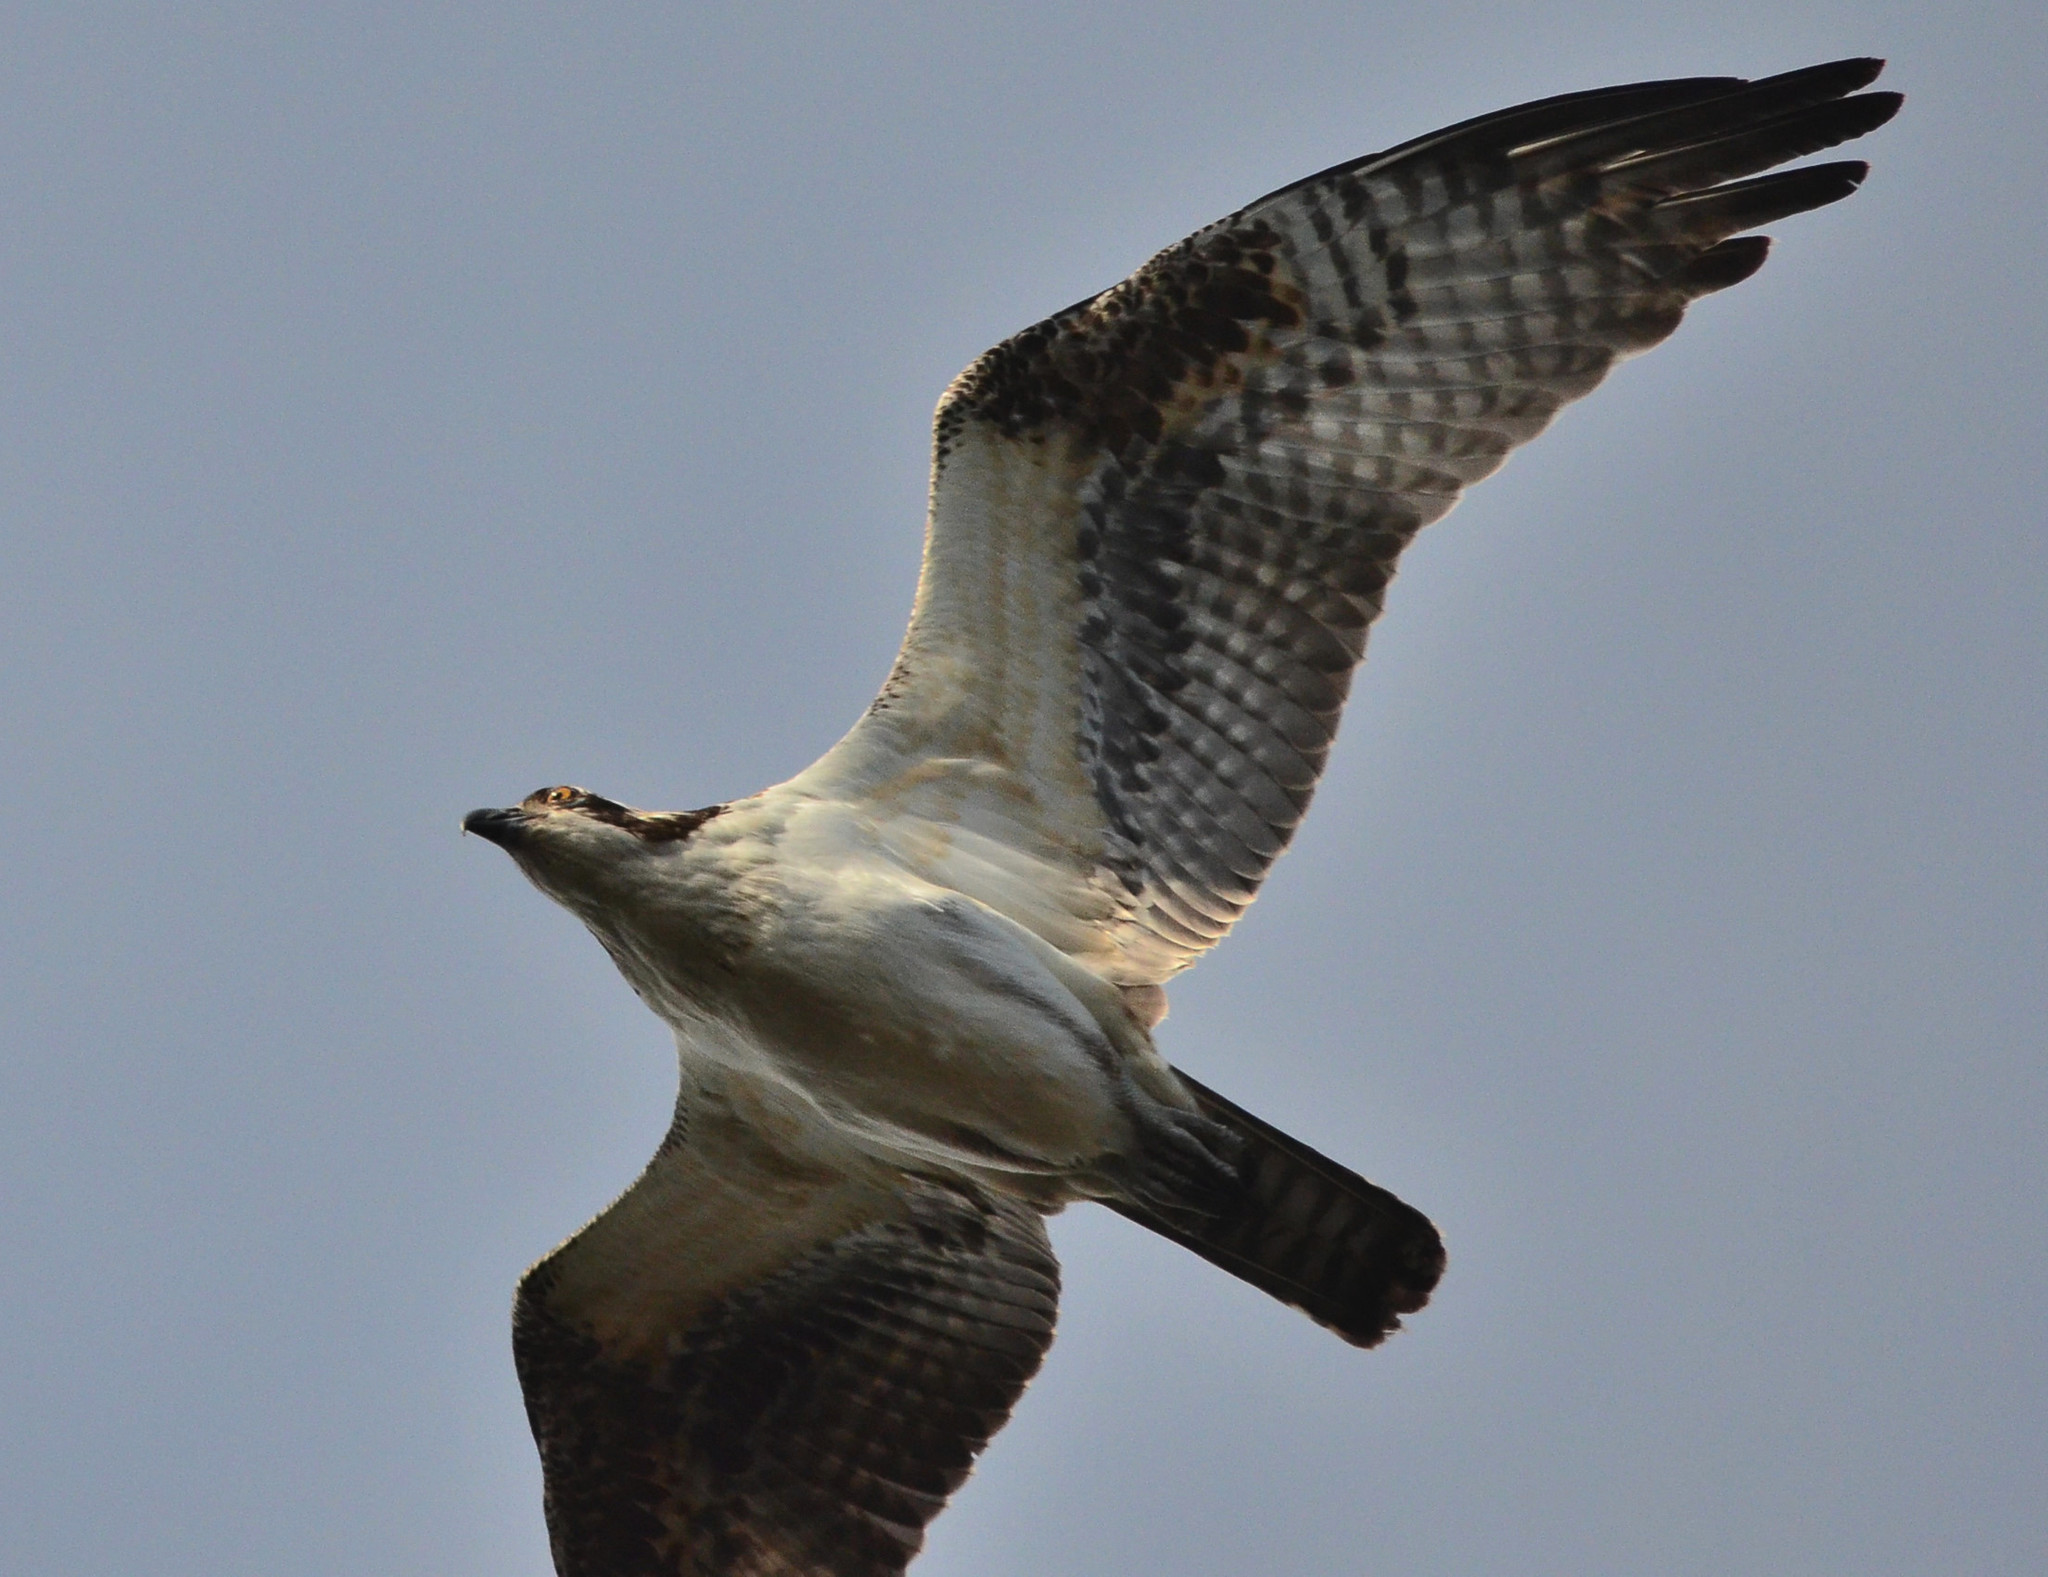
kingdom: Animalia
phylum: Chordata
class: Aves
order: Accipitriformes
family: Pandionidae
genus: Pandion
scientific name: Pandion haliaetus
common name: Osprey
